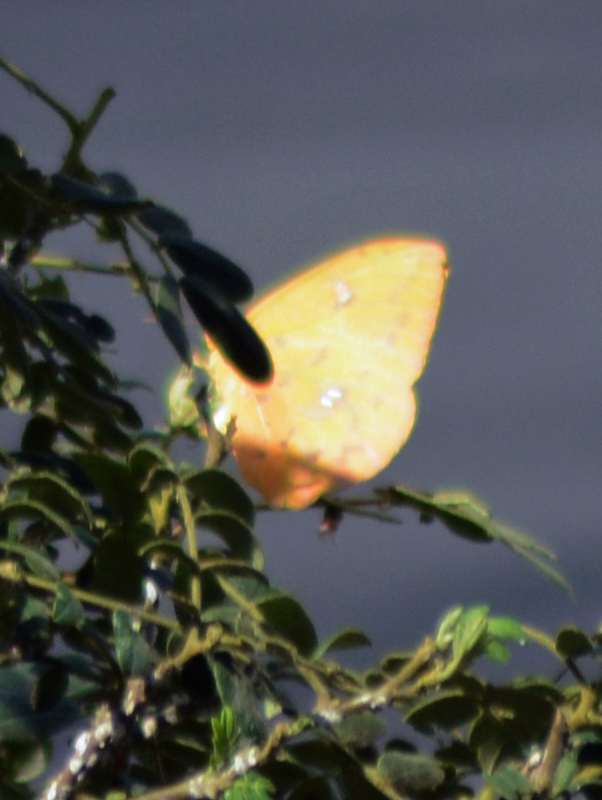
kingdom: Animalia
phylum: Arthropoda
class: Insecta
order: Lepidoptera
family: Pieridae
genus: Phoebis
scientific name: Phoebis philea
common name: Orange-barred giant sulphur
